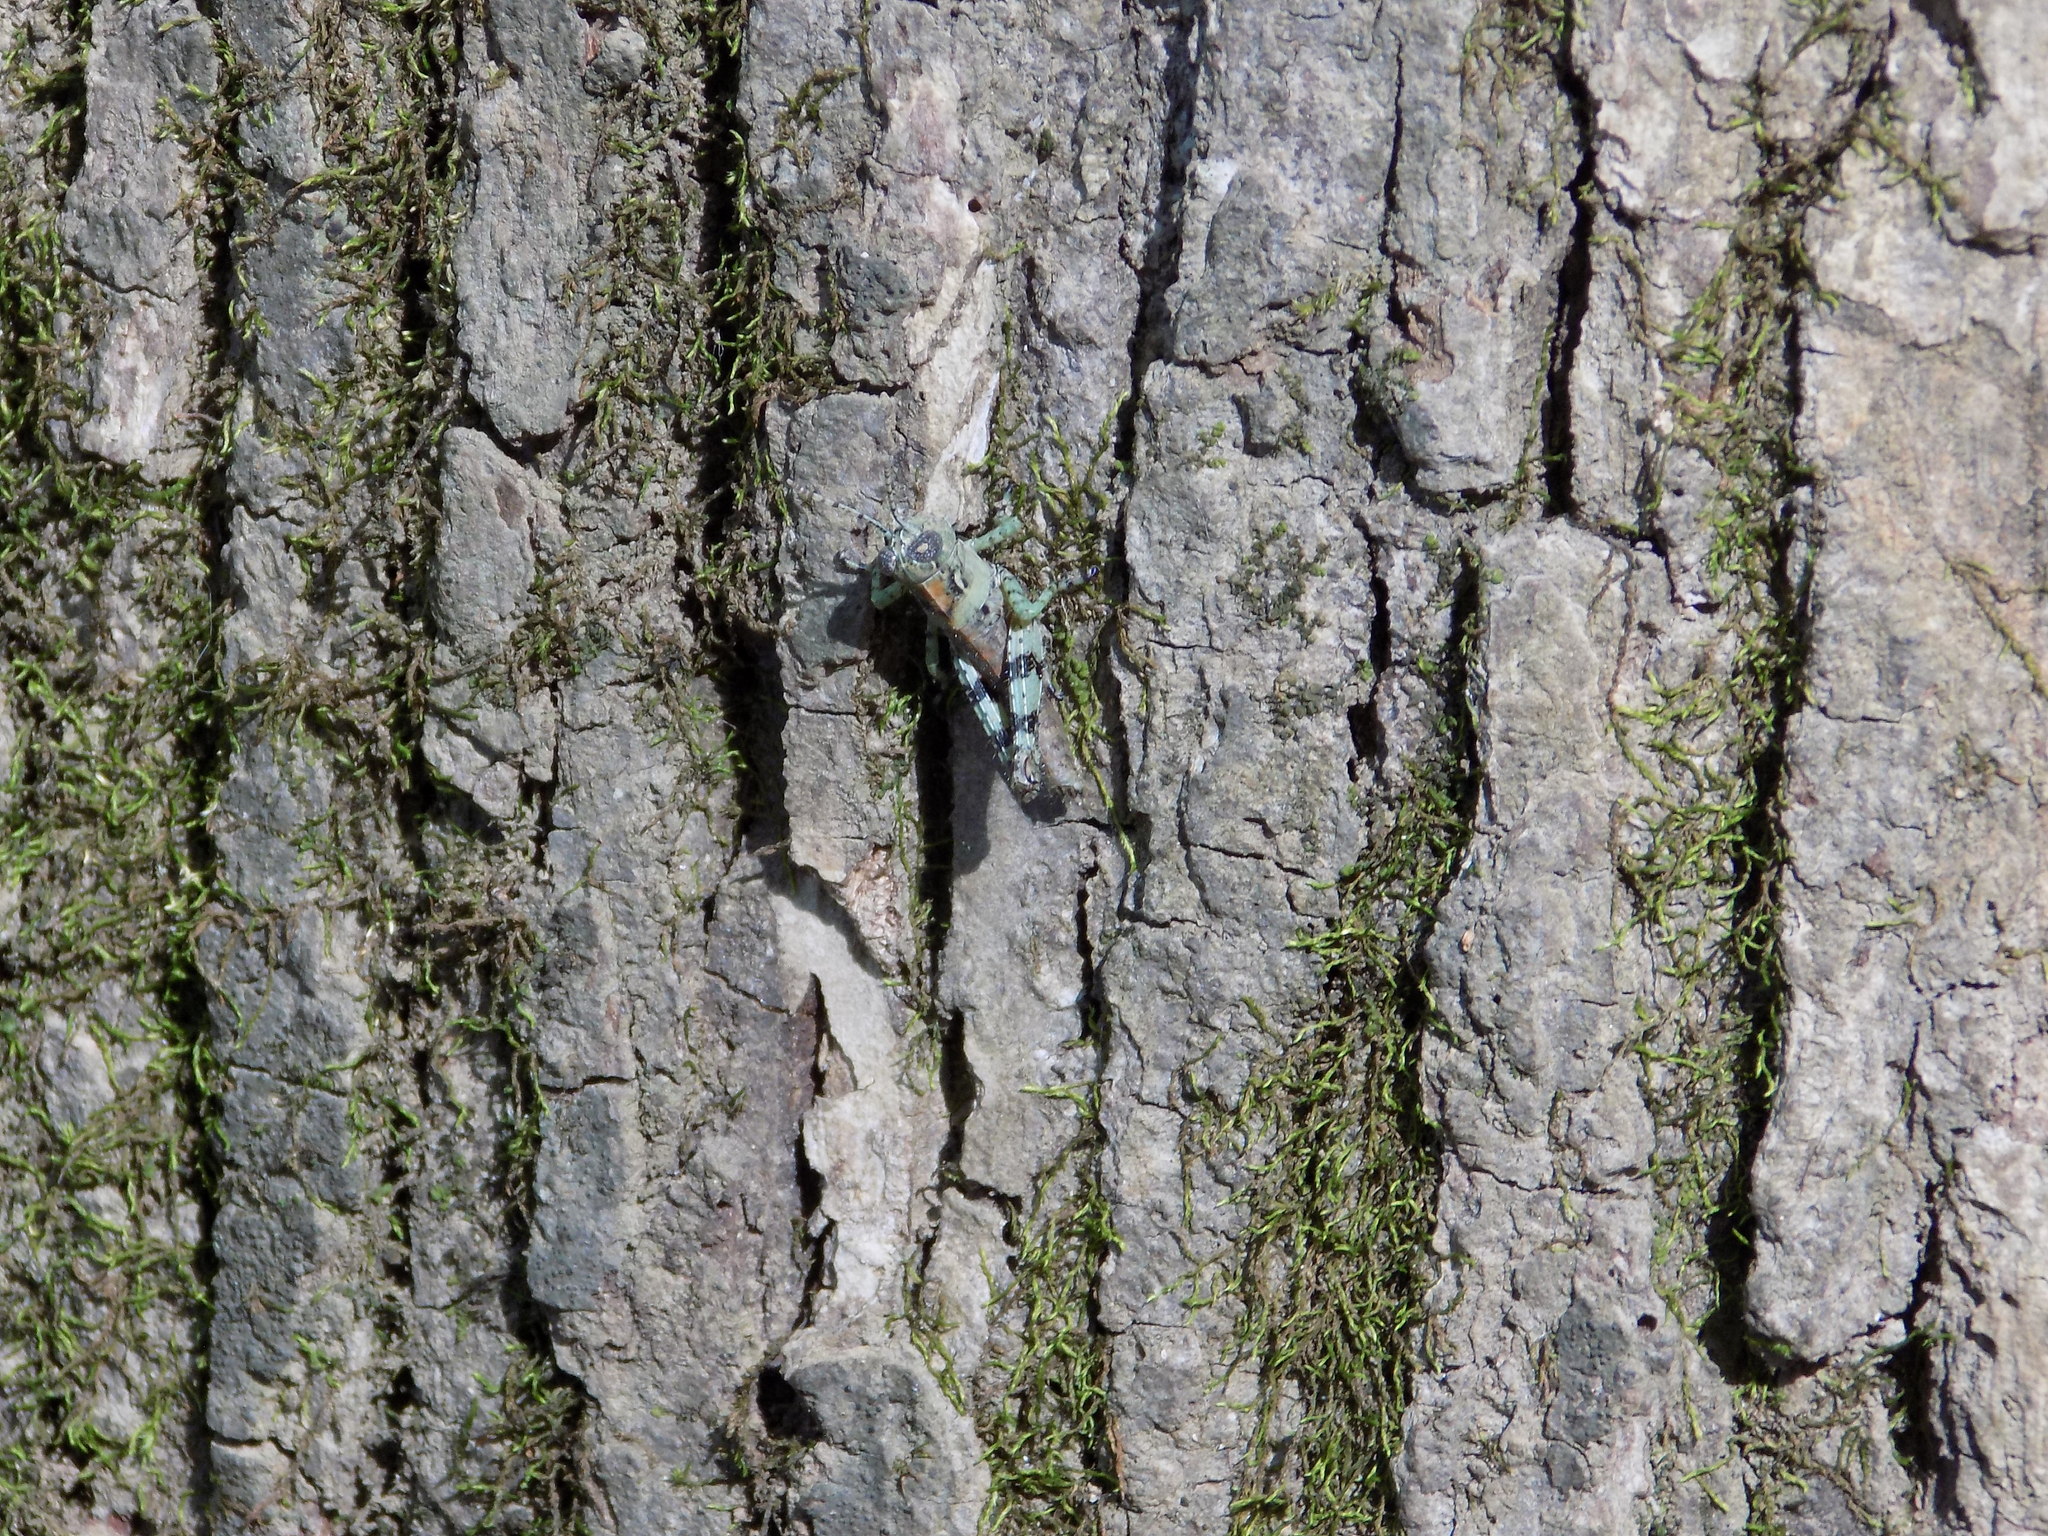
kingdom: Animalia
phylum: Arthropoda
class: Insecta
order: Orthoptera
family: Acrididae
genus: Melanoplus
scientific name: Melanoplus punctulatus
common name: Pine-tree spur-throat grasshopper
